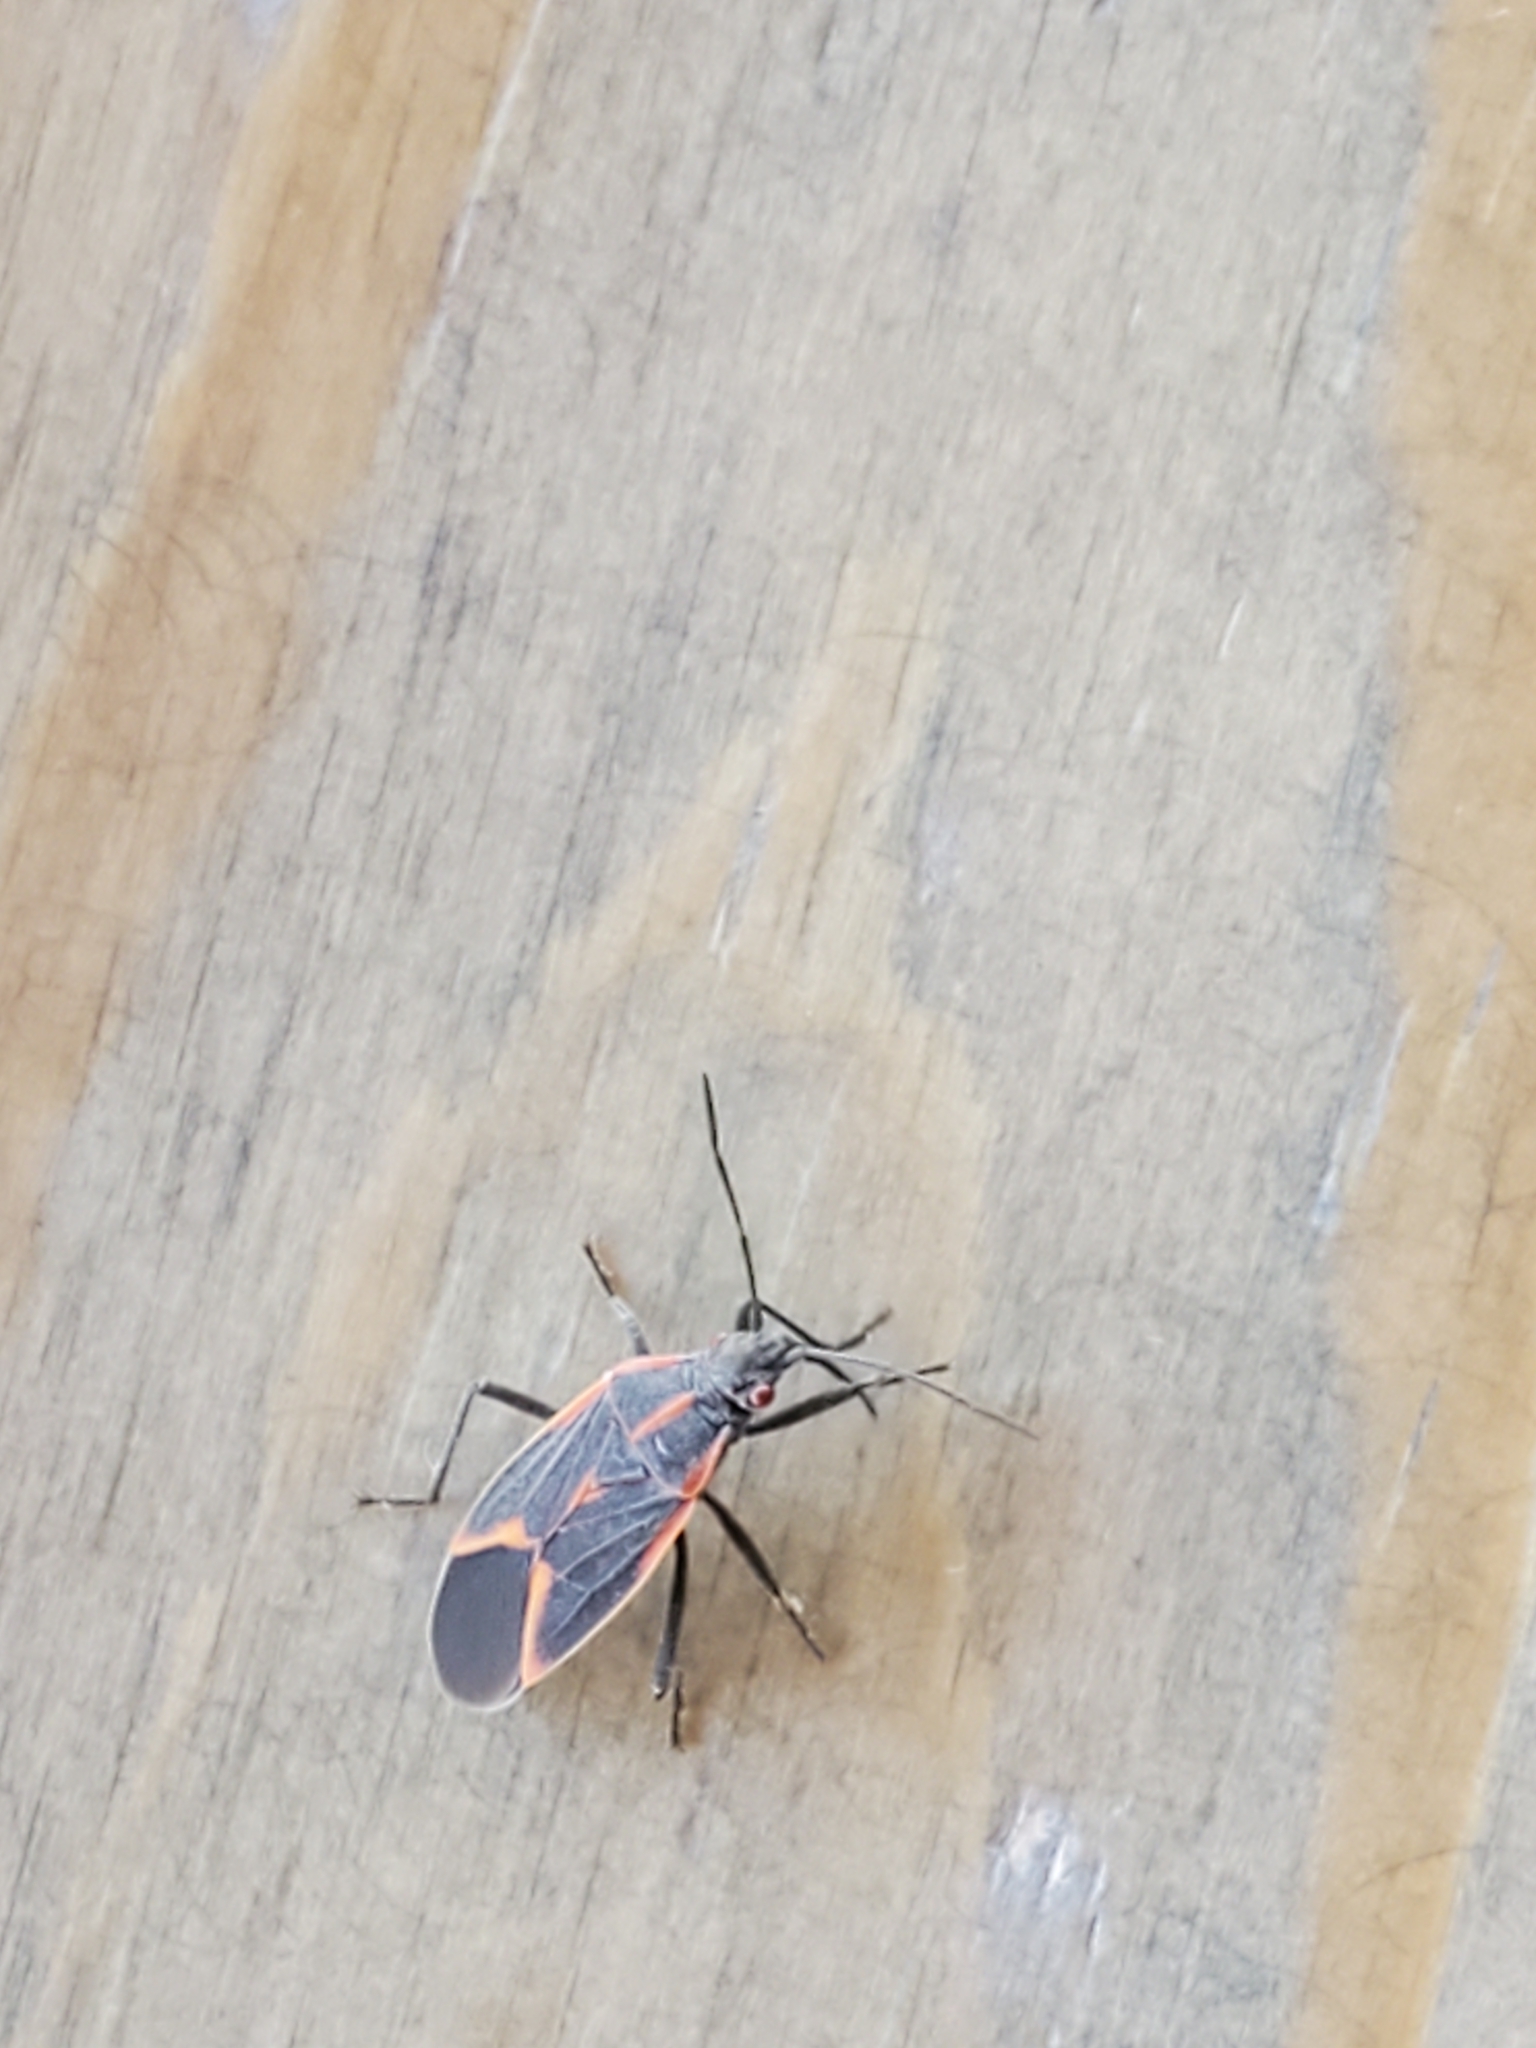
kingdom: Animalia
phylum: Arthropoda
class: Insecta
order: Hemiptera
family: Rhopalidae
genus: Boisea
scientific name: Boisea trivittata
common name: Boxelder bug
